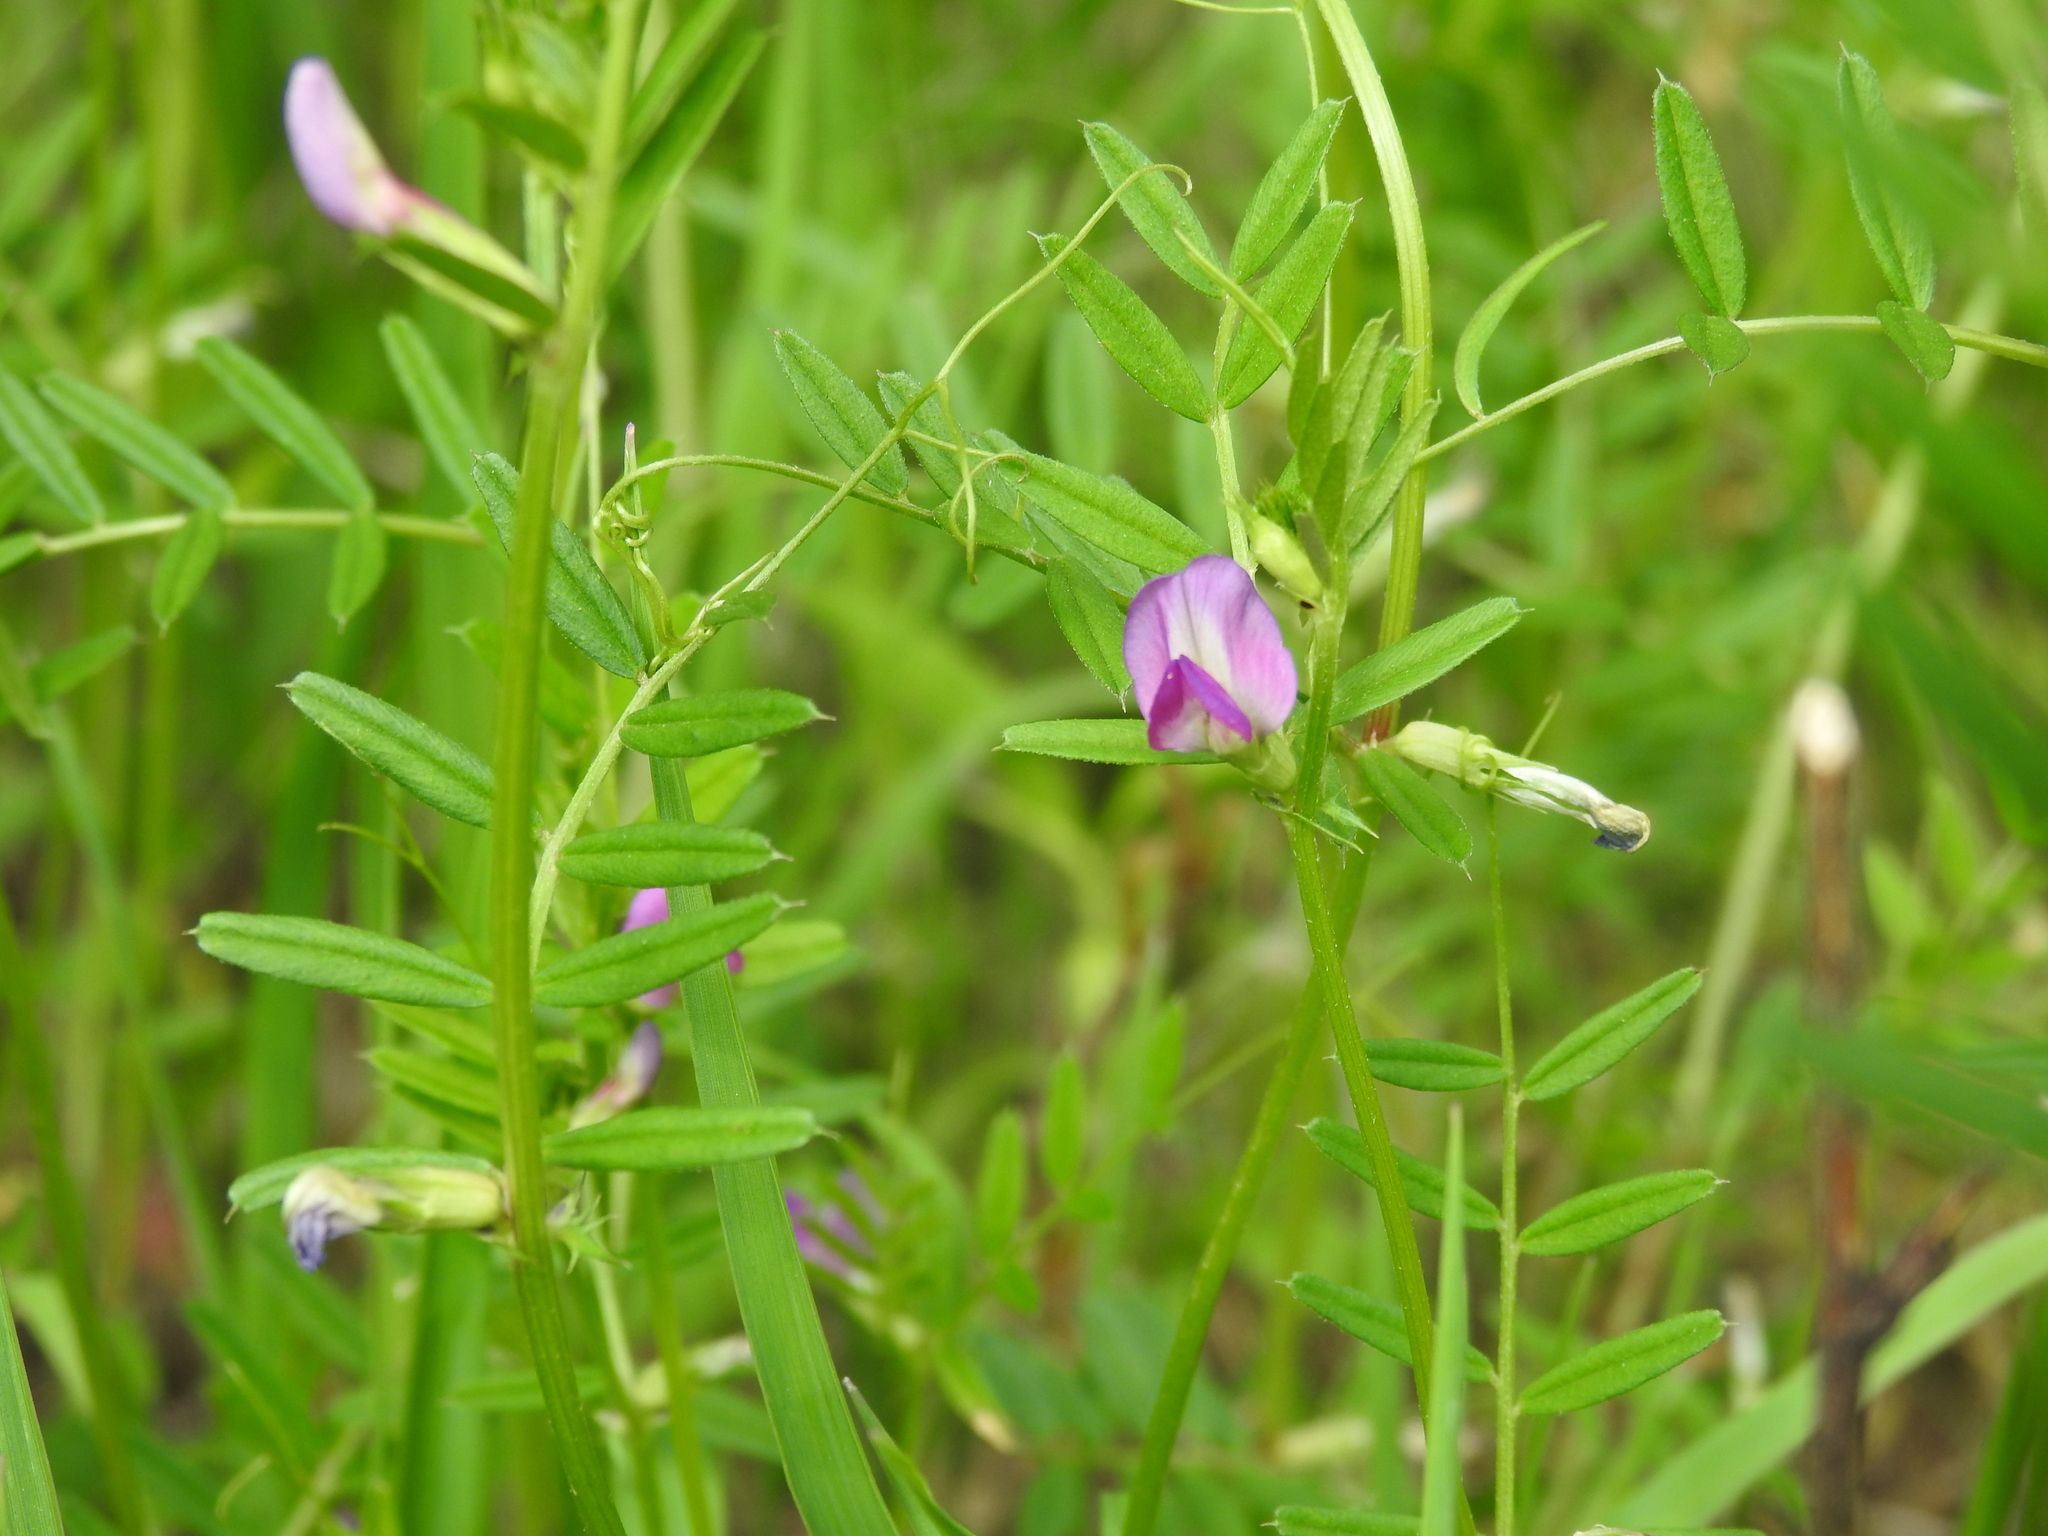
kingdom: Plantae
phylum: Tracheophyta
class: Magnoliopsida
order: Fabales
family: Fabaceae
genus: Vicia
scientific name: Vicia sativa
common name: Garden vetch
